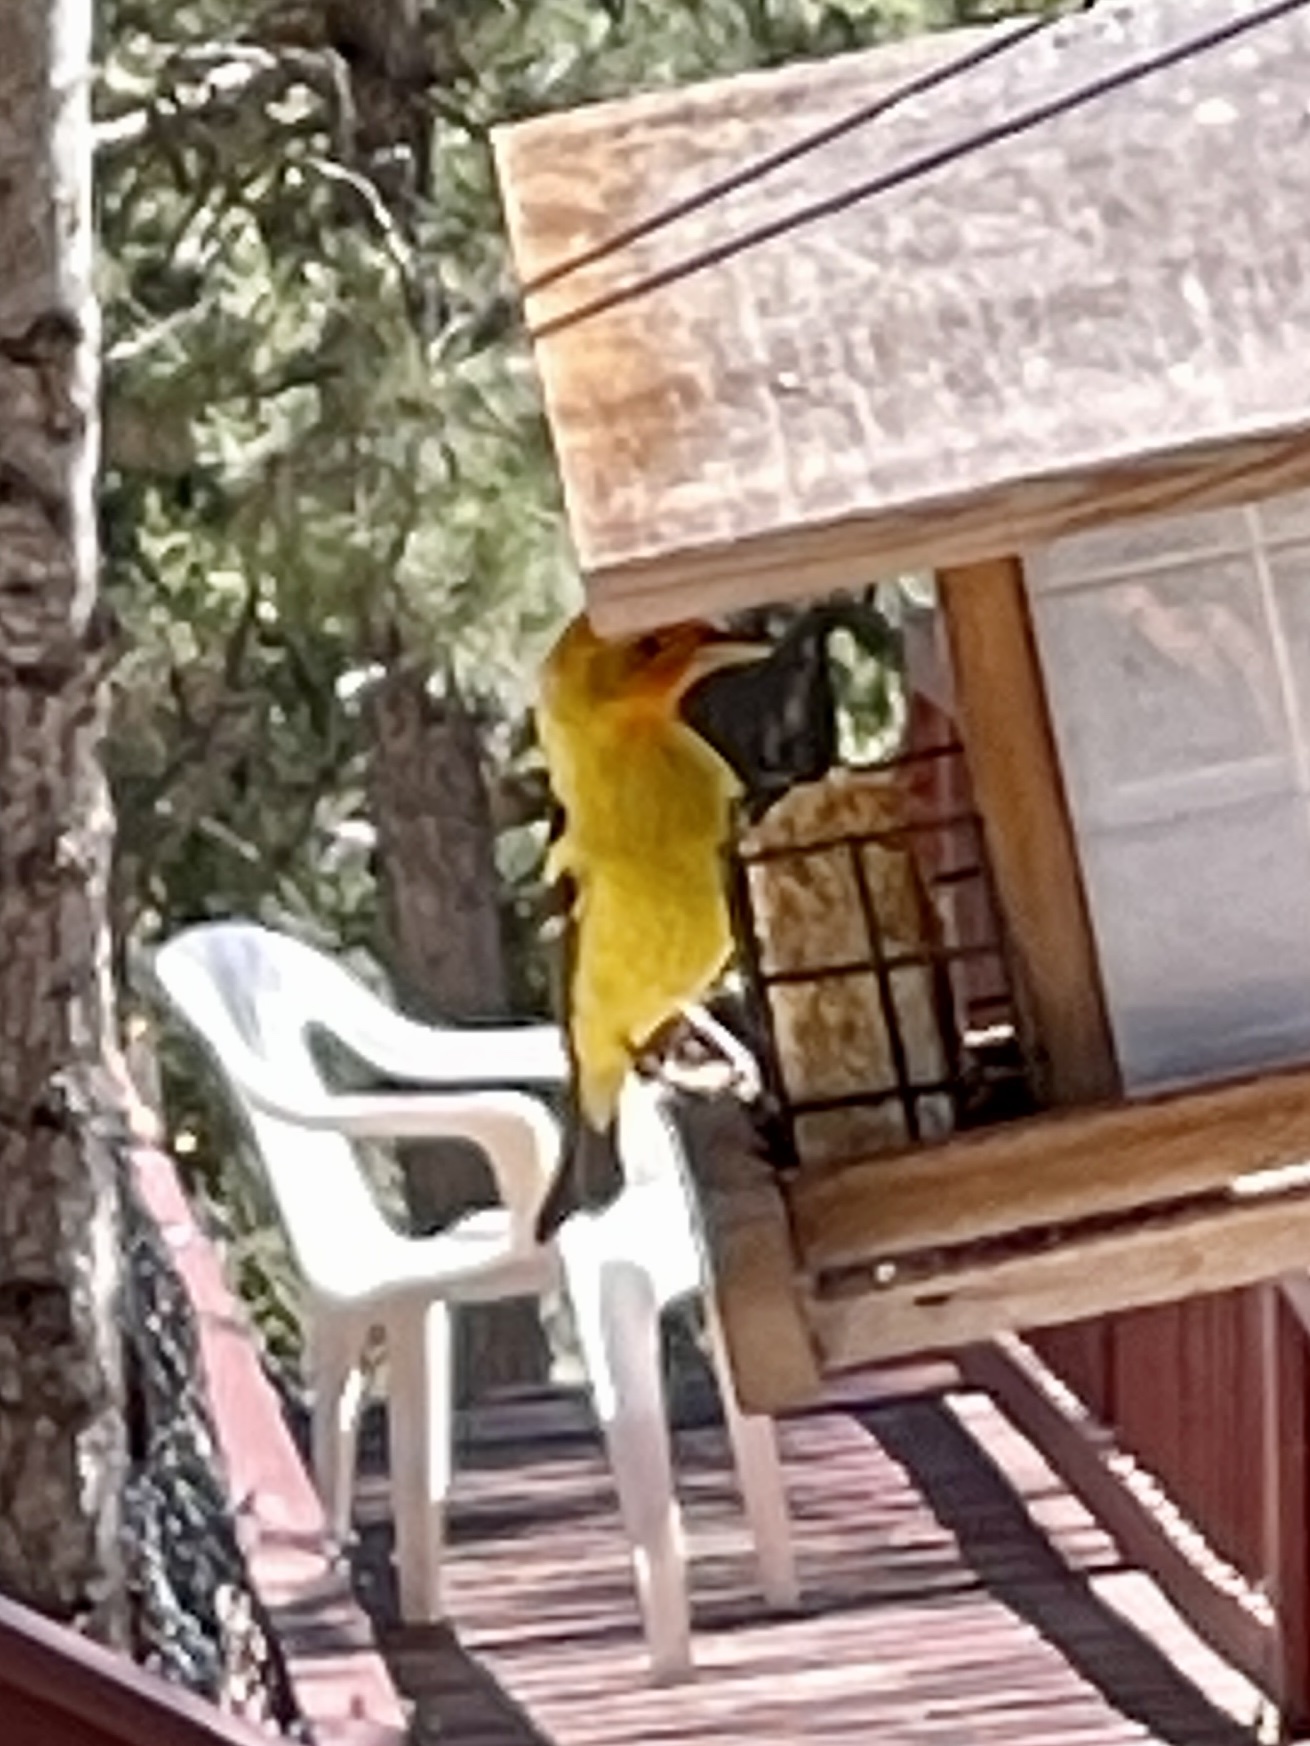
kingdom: Animalia
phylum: Chordata
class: Aves
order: Passeriformes
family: Cardinalidae
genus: Piranga
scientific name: Piranga ludoviciana
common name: Western tanager
